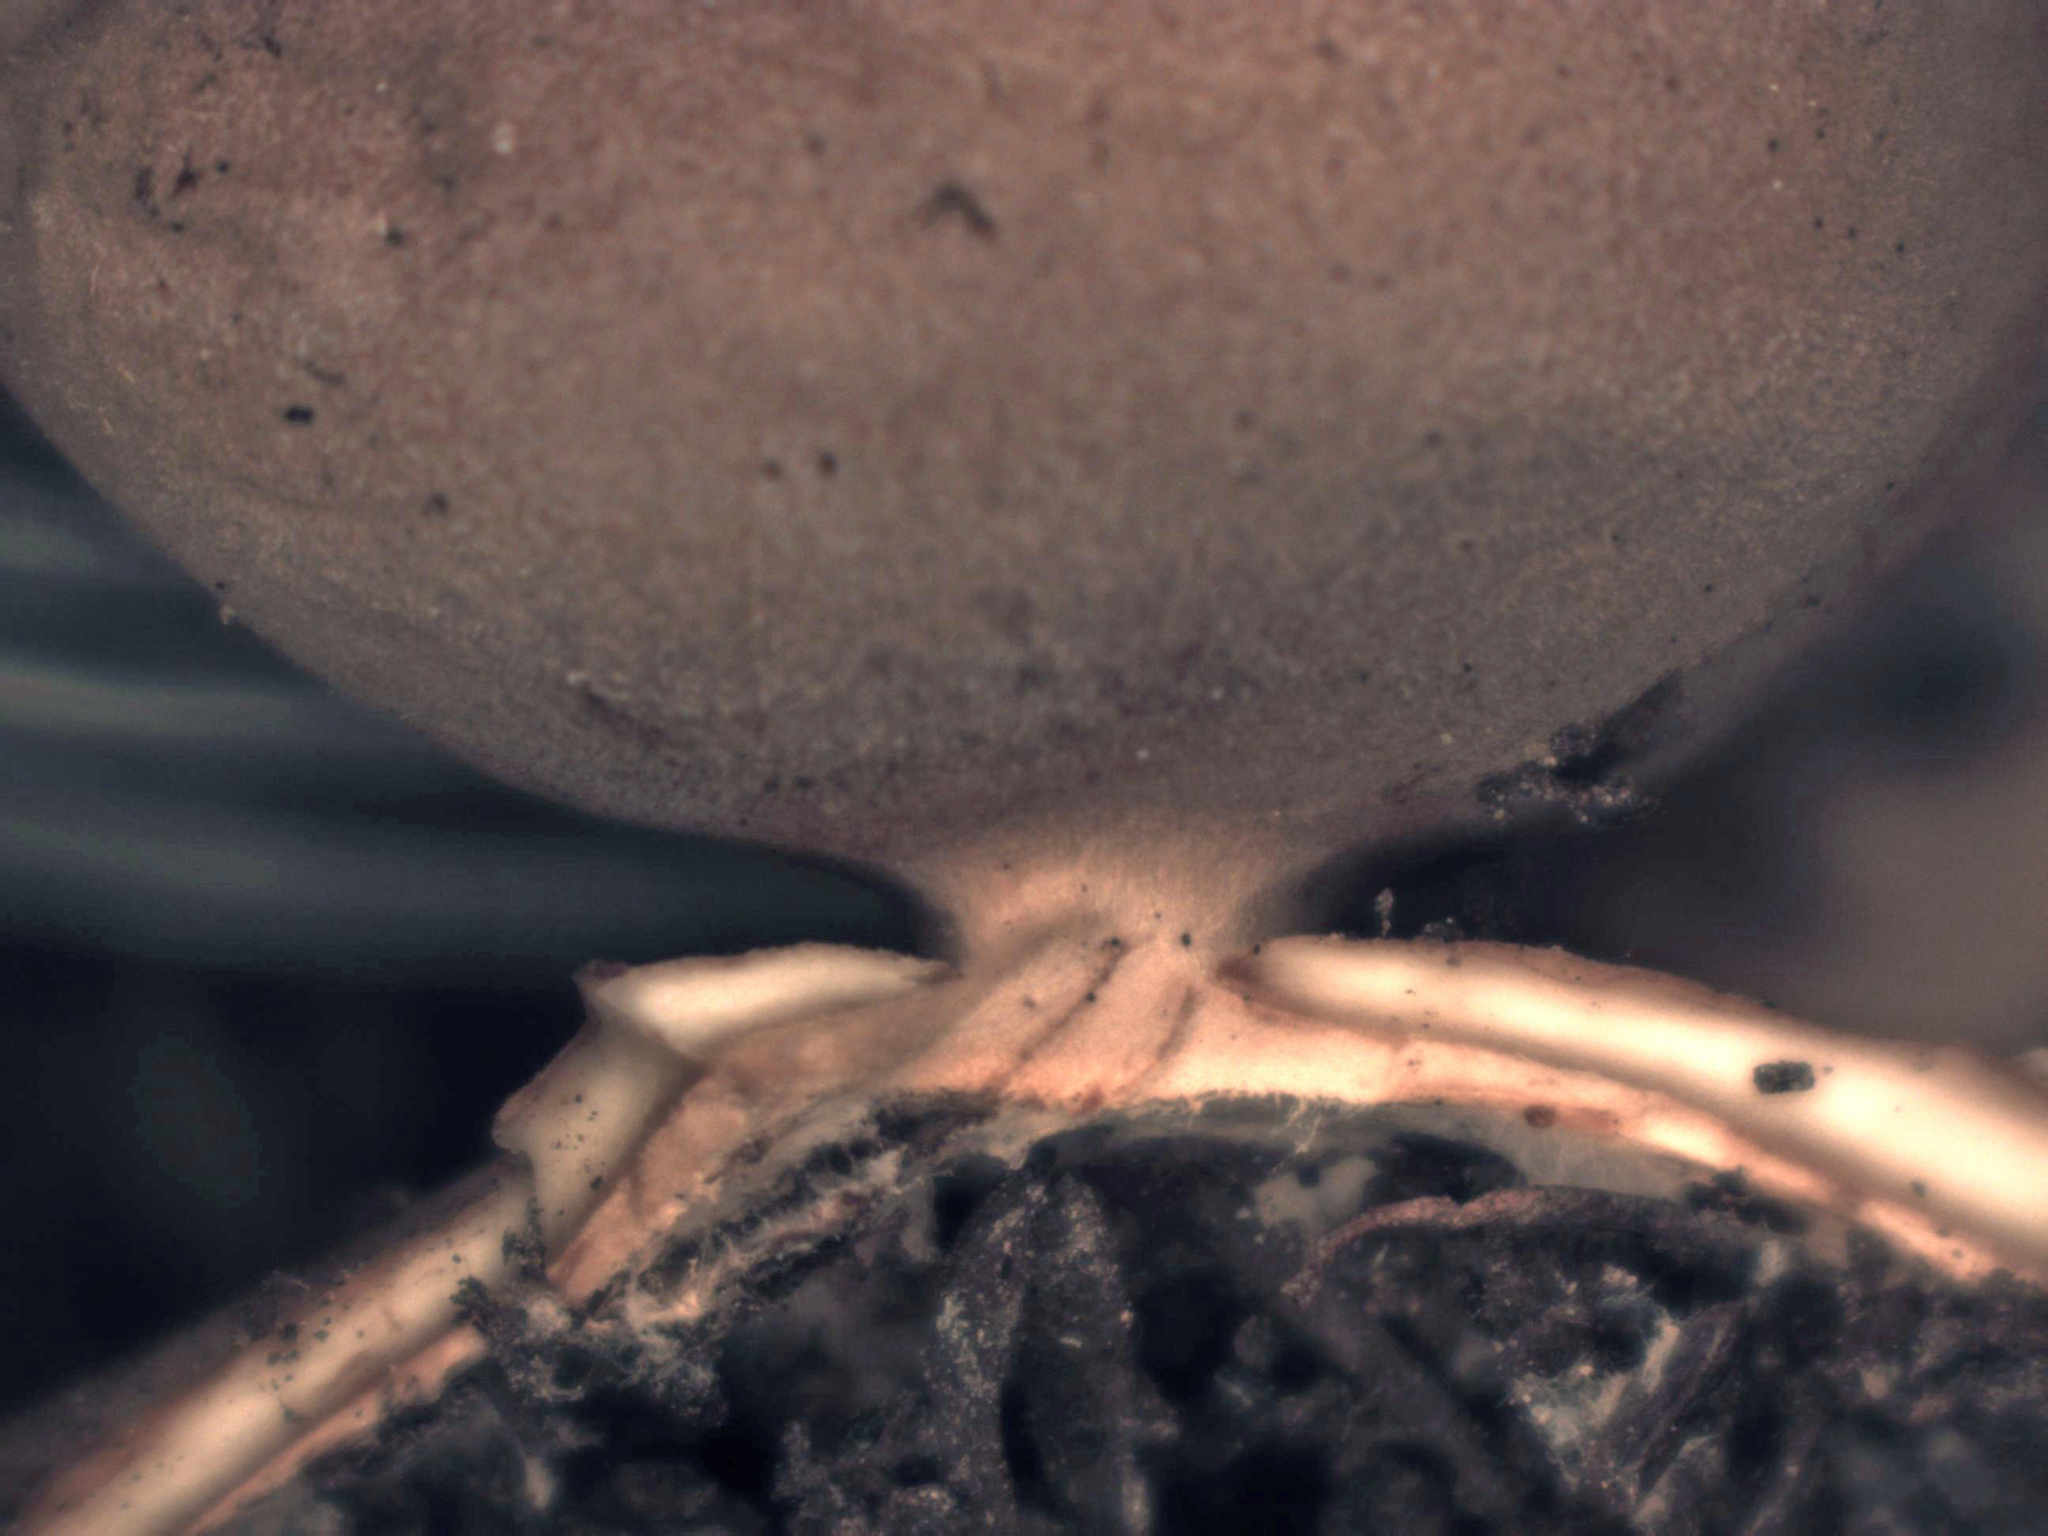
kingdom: Fungi
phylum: Basidiomycota
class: Agaricomycetes
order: Geastrales
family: Geastraceae
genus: Geastrum
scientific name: Geastrum setiferum
